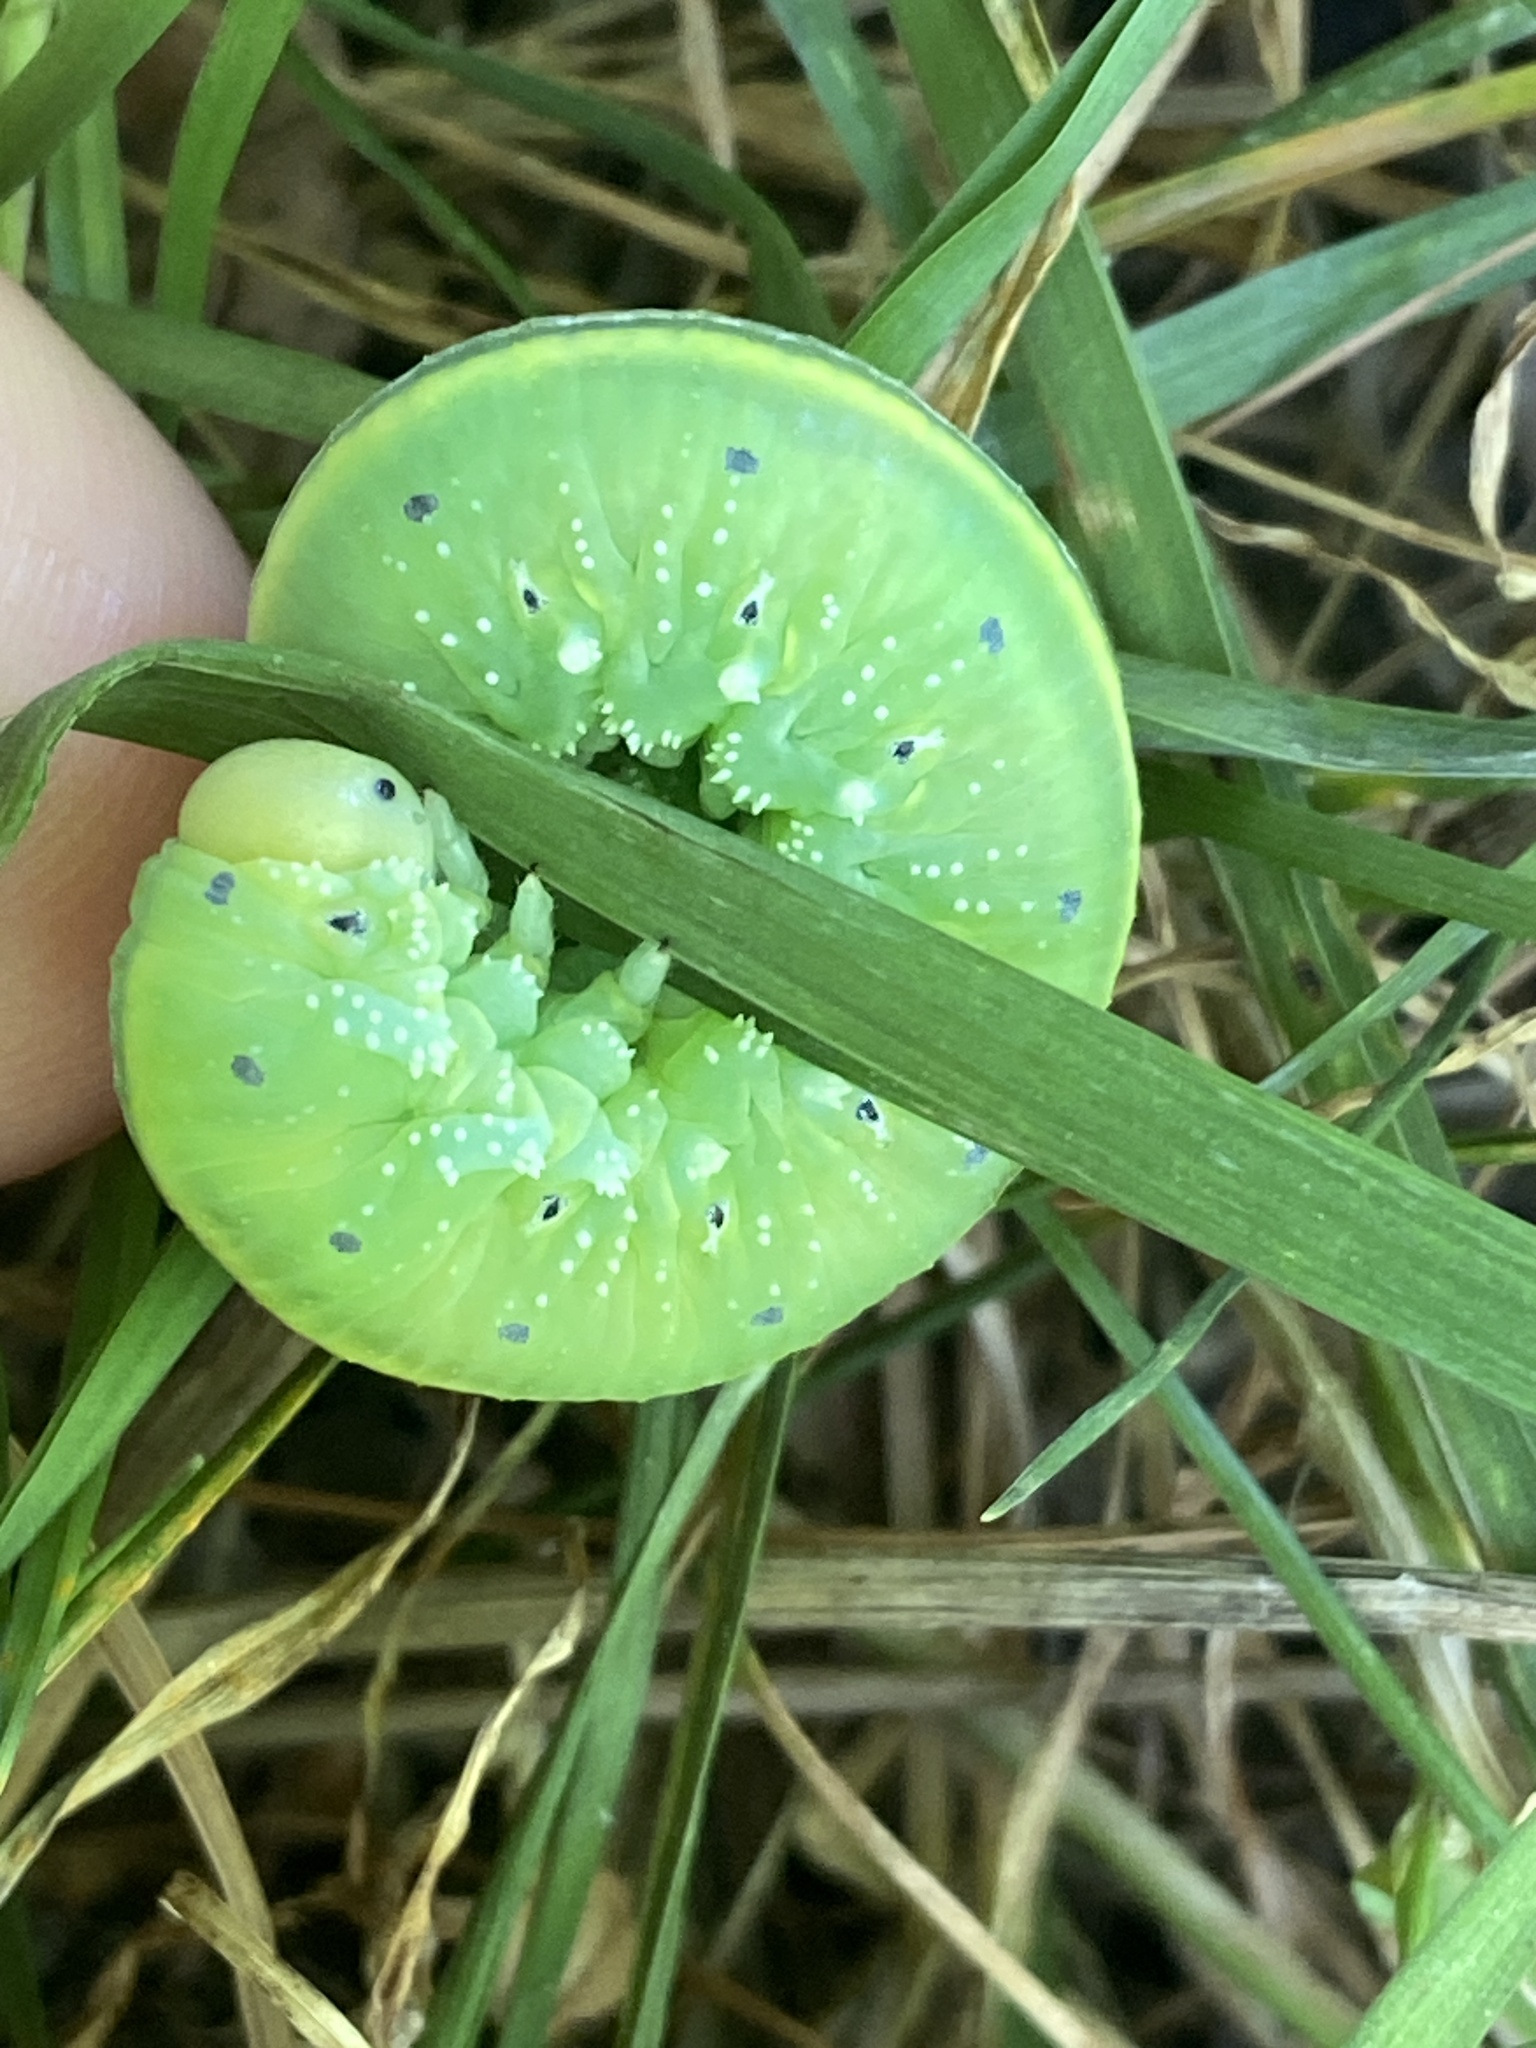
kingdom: Animalia
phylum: Arthropoda
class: Insecta
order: Hymenoptera
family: Cimbicidae
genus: Cimbex
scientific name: Cimbex connatus
